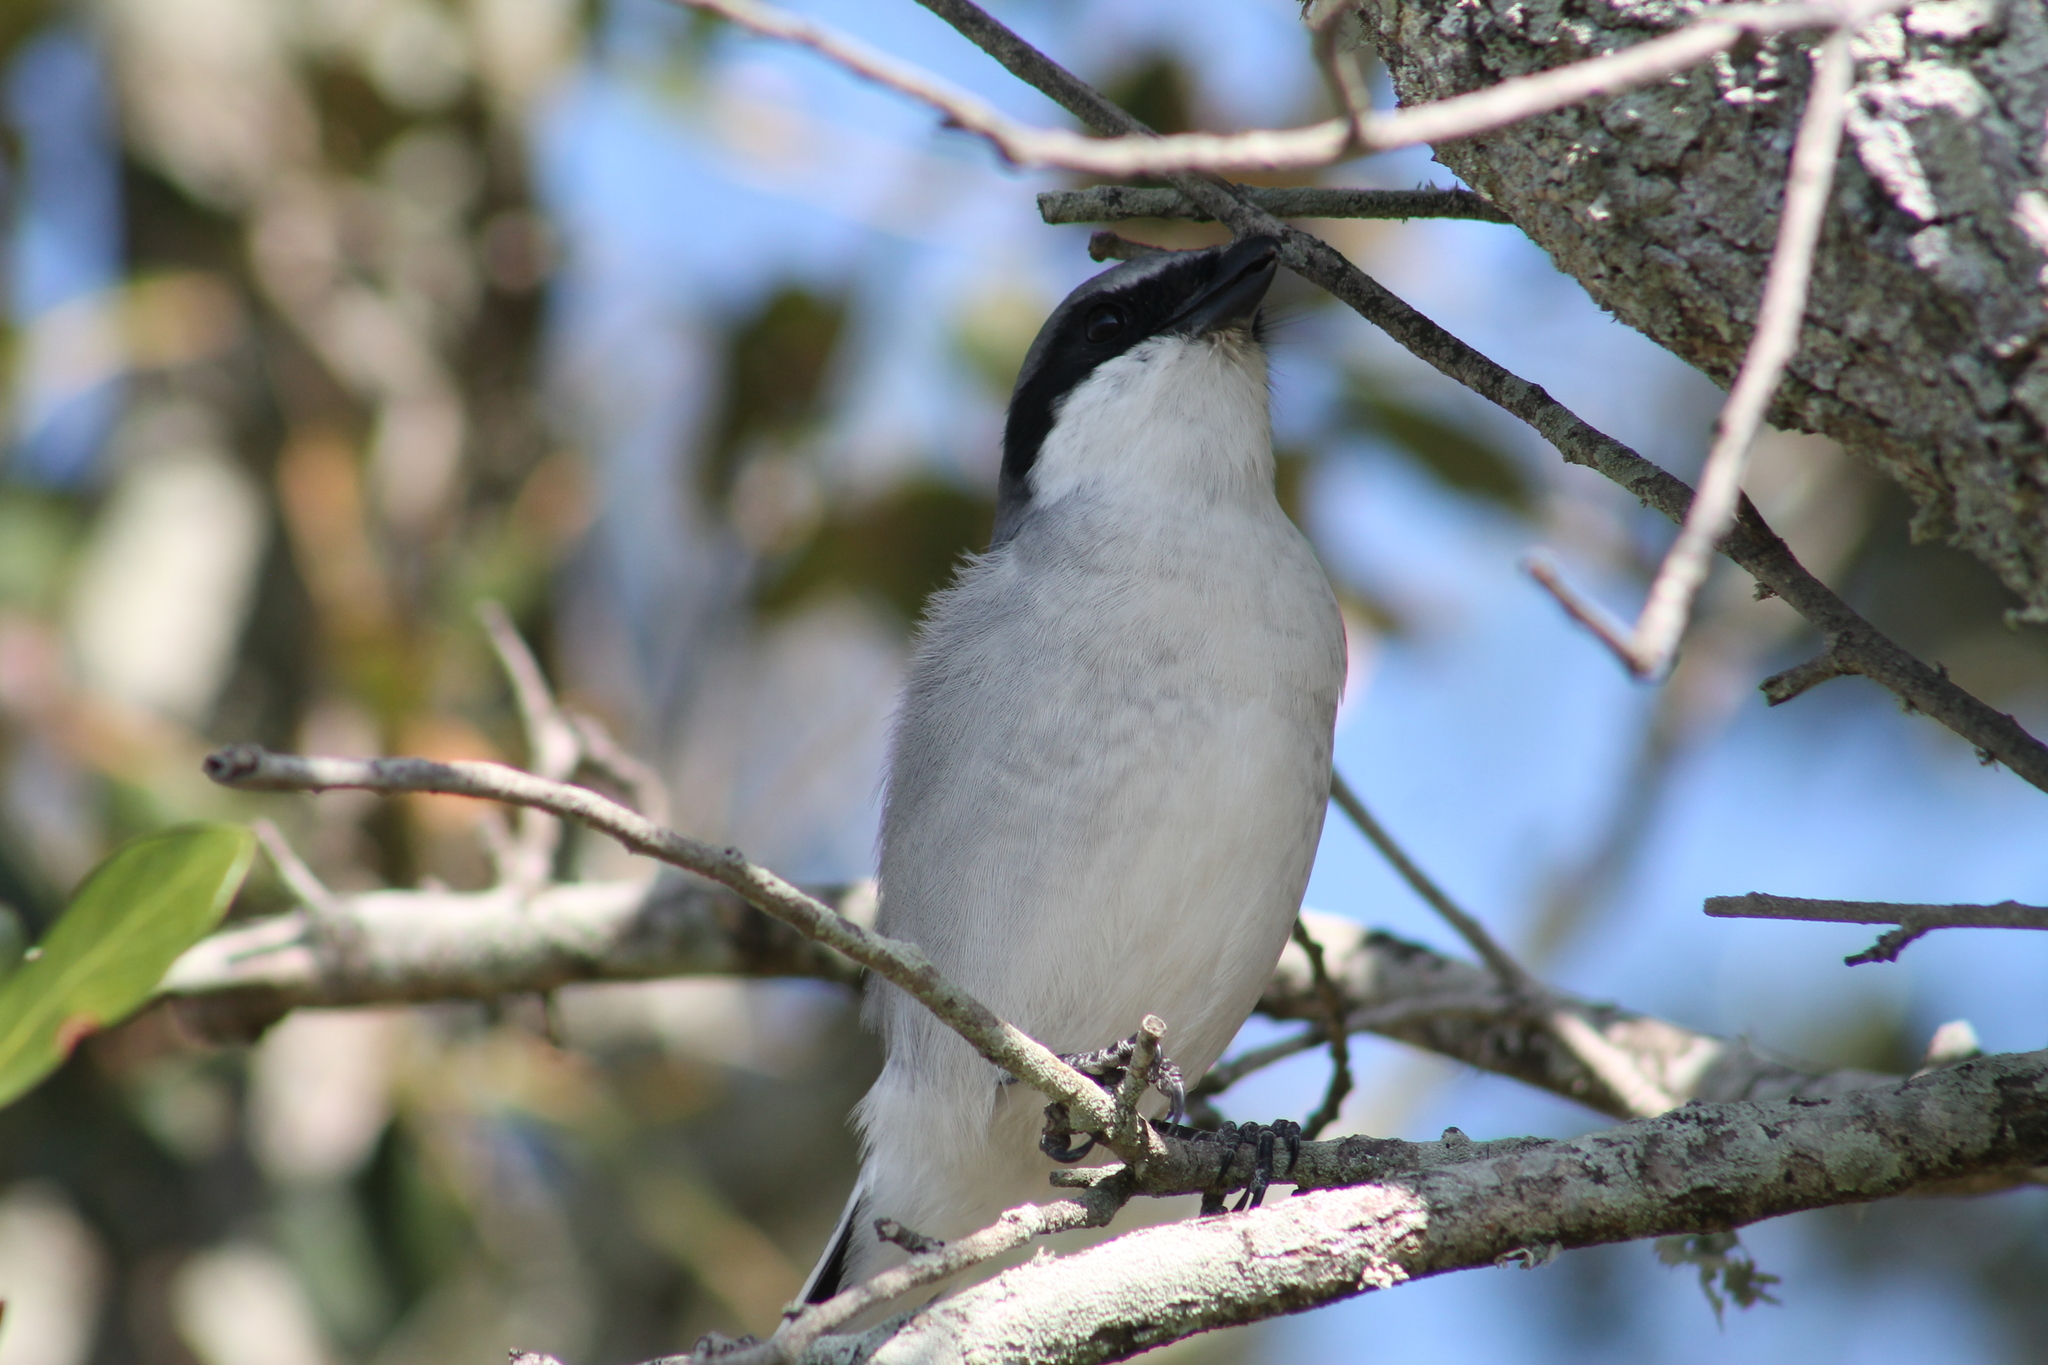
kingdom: Animalia
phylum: Chordata
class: Aves
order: Passeriformes
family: Laniidae
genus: Lanius
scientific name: Lanius ludovicianus
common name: Loggerhead shrike
